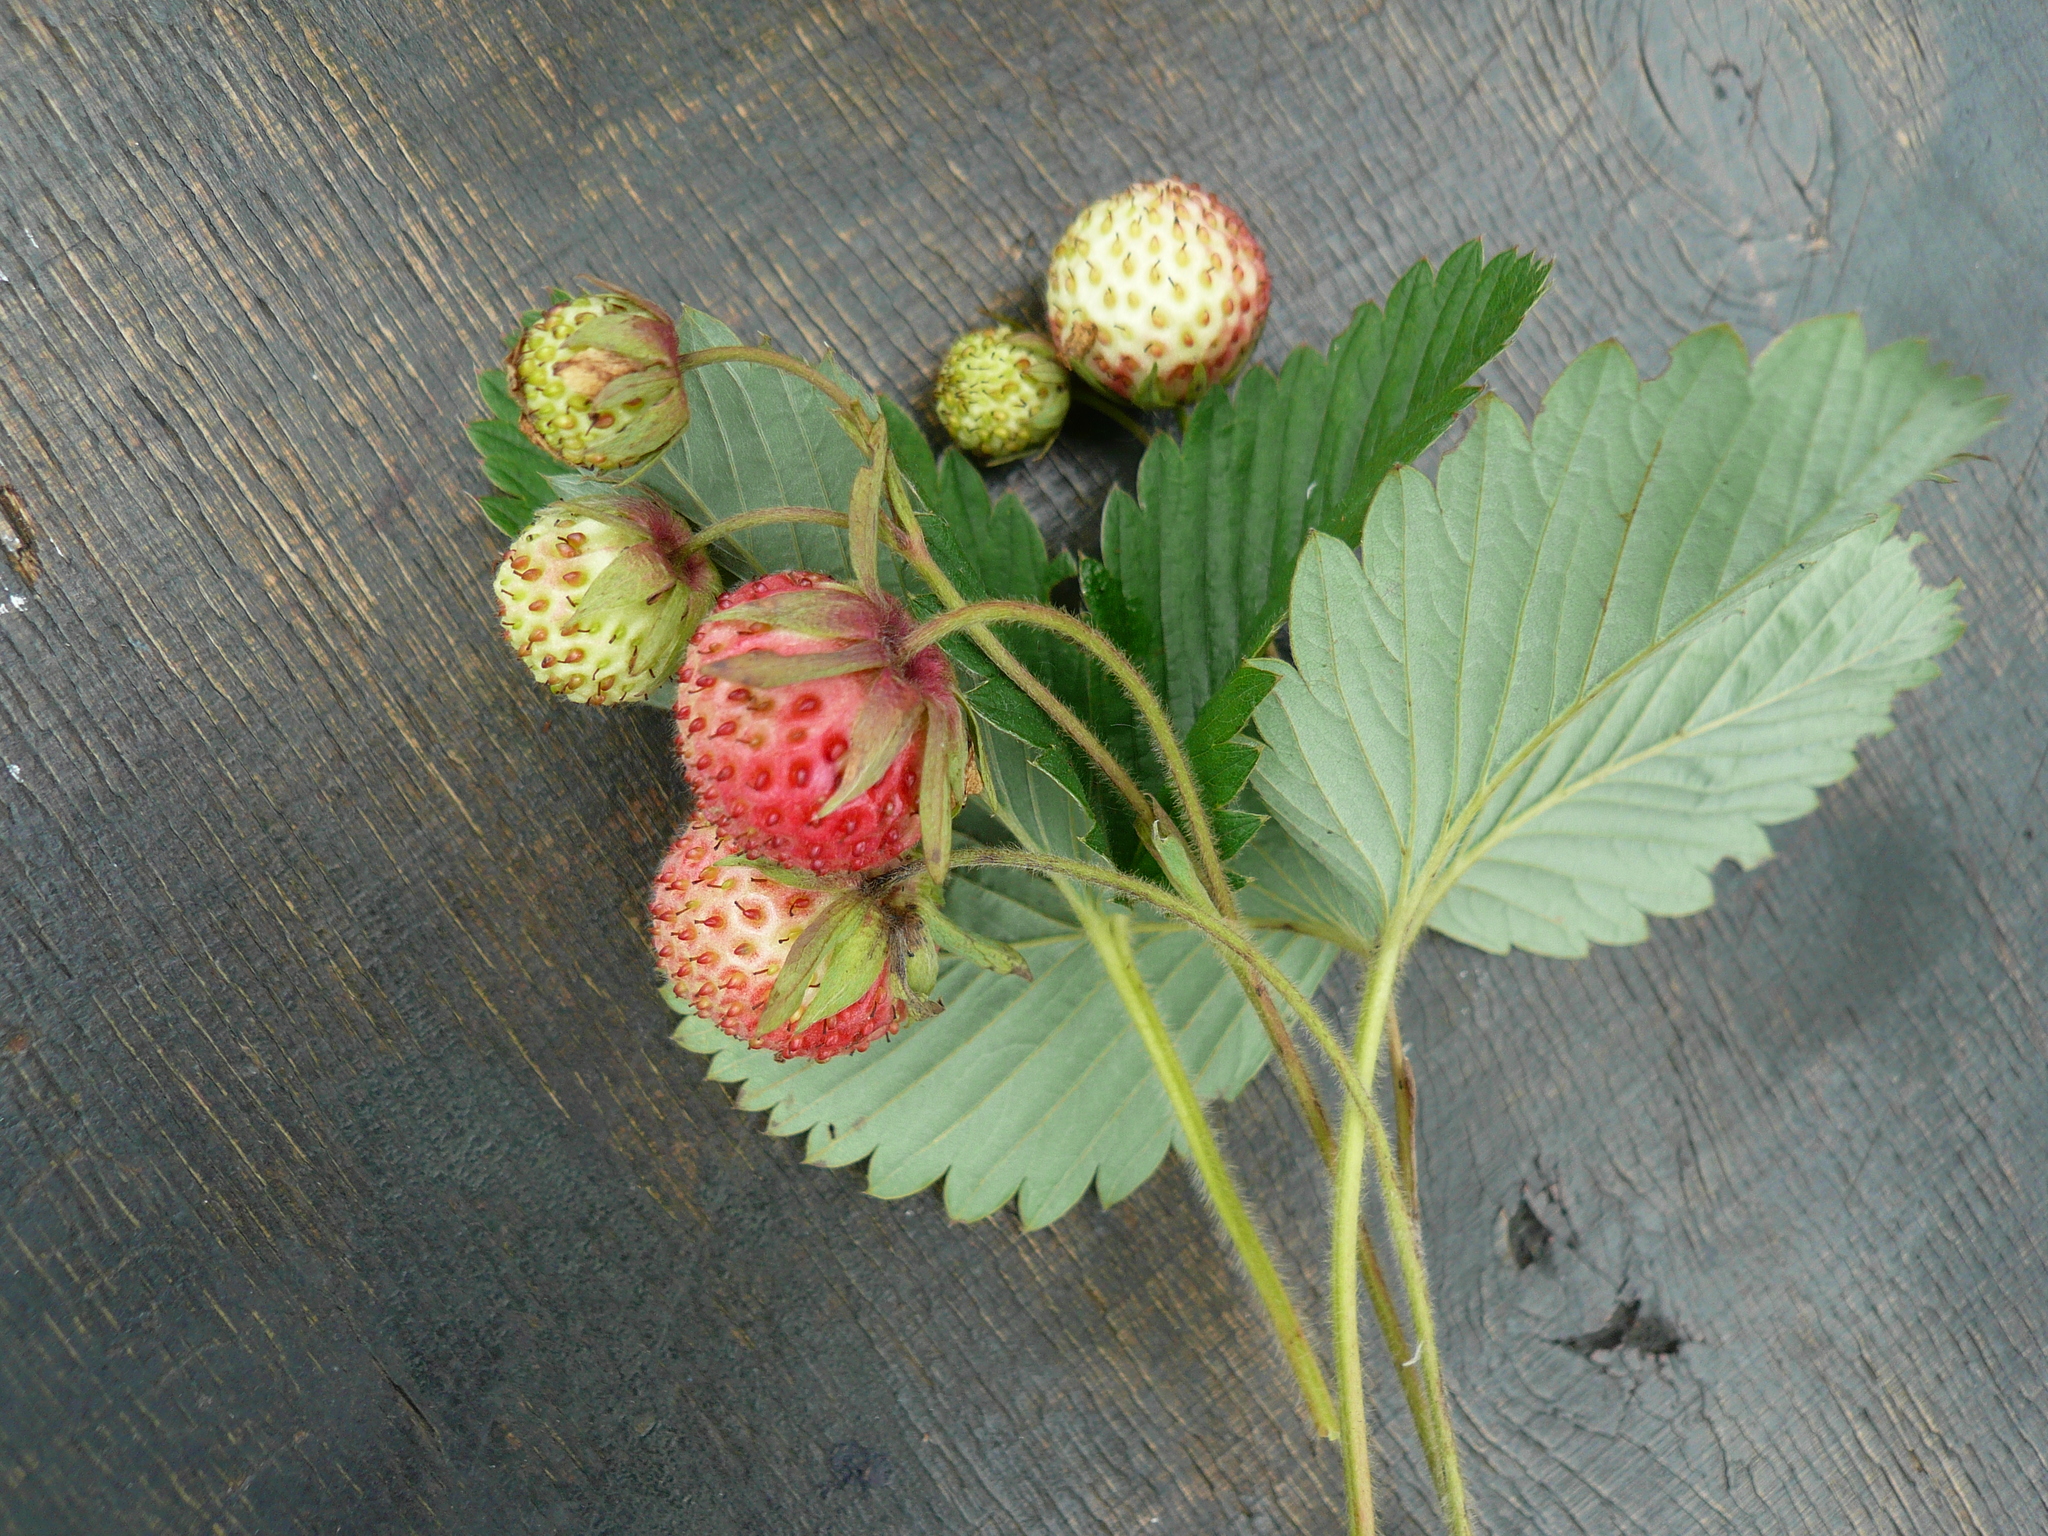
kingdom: Plantae
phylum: Tracheophyta
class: Magnoliopsida
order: Rosales
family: Rosaceae
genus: Fragaria
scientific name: Fragaria viridis
